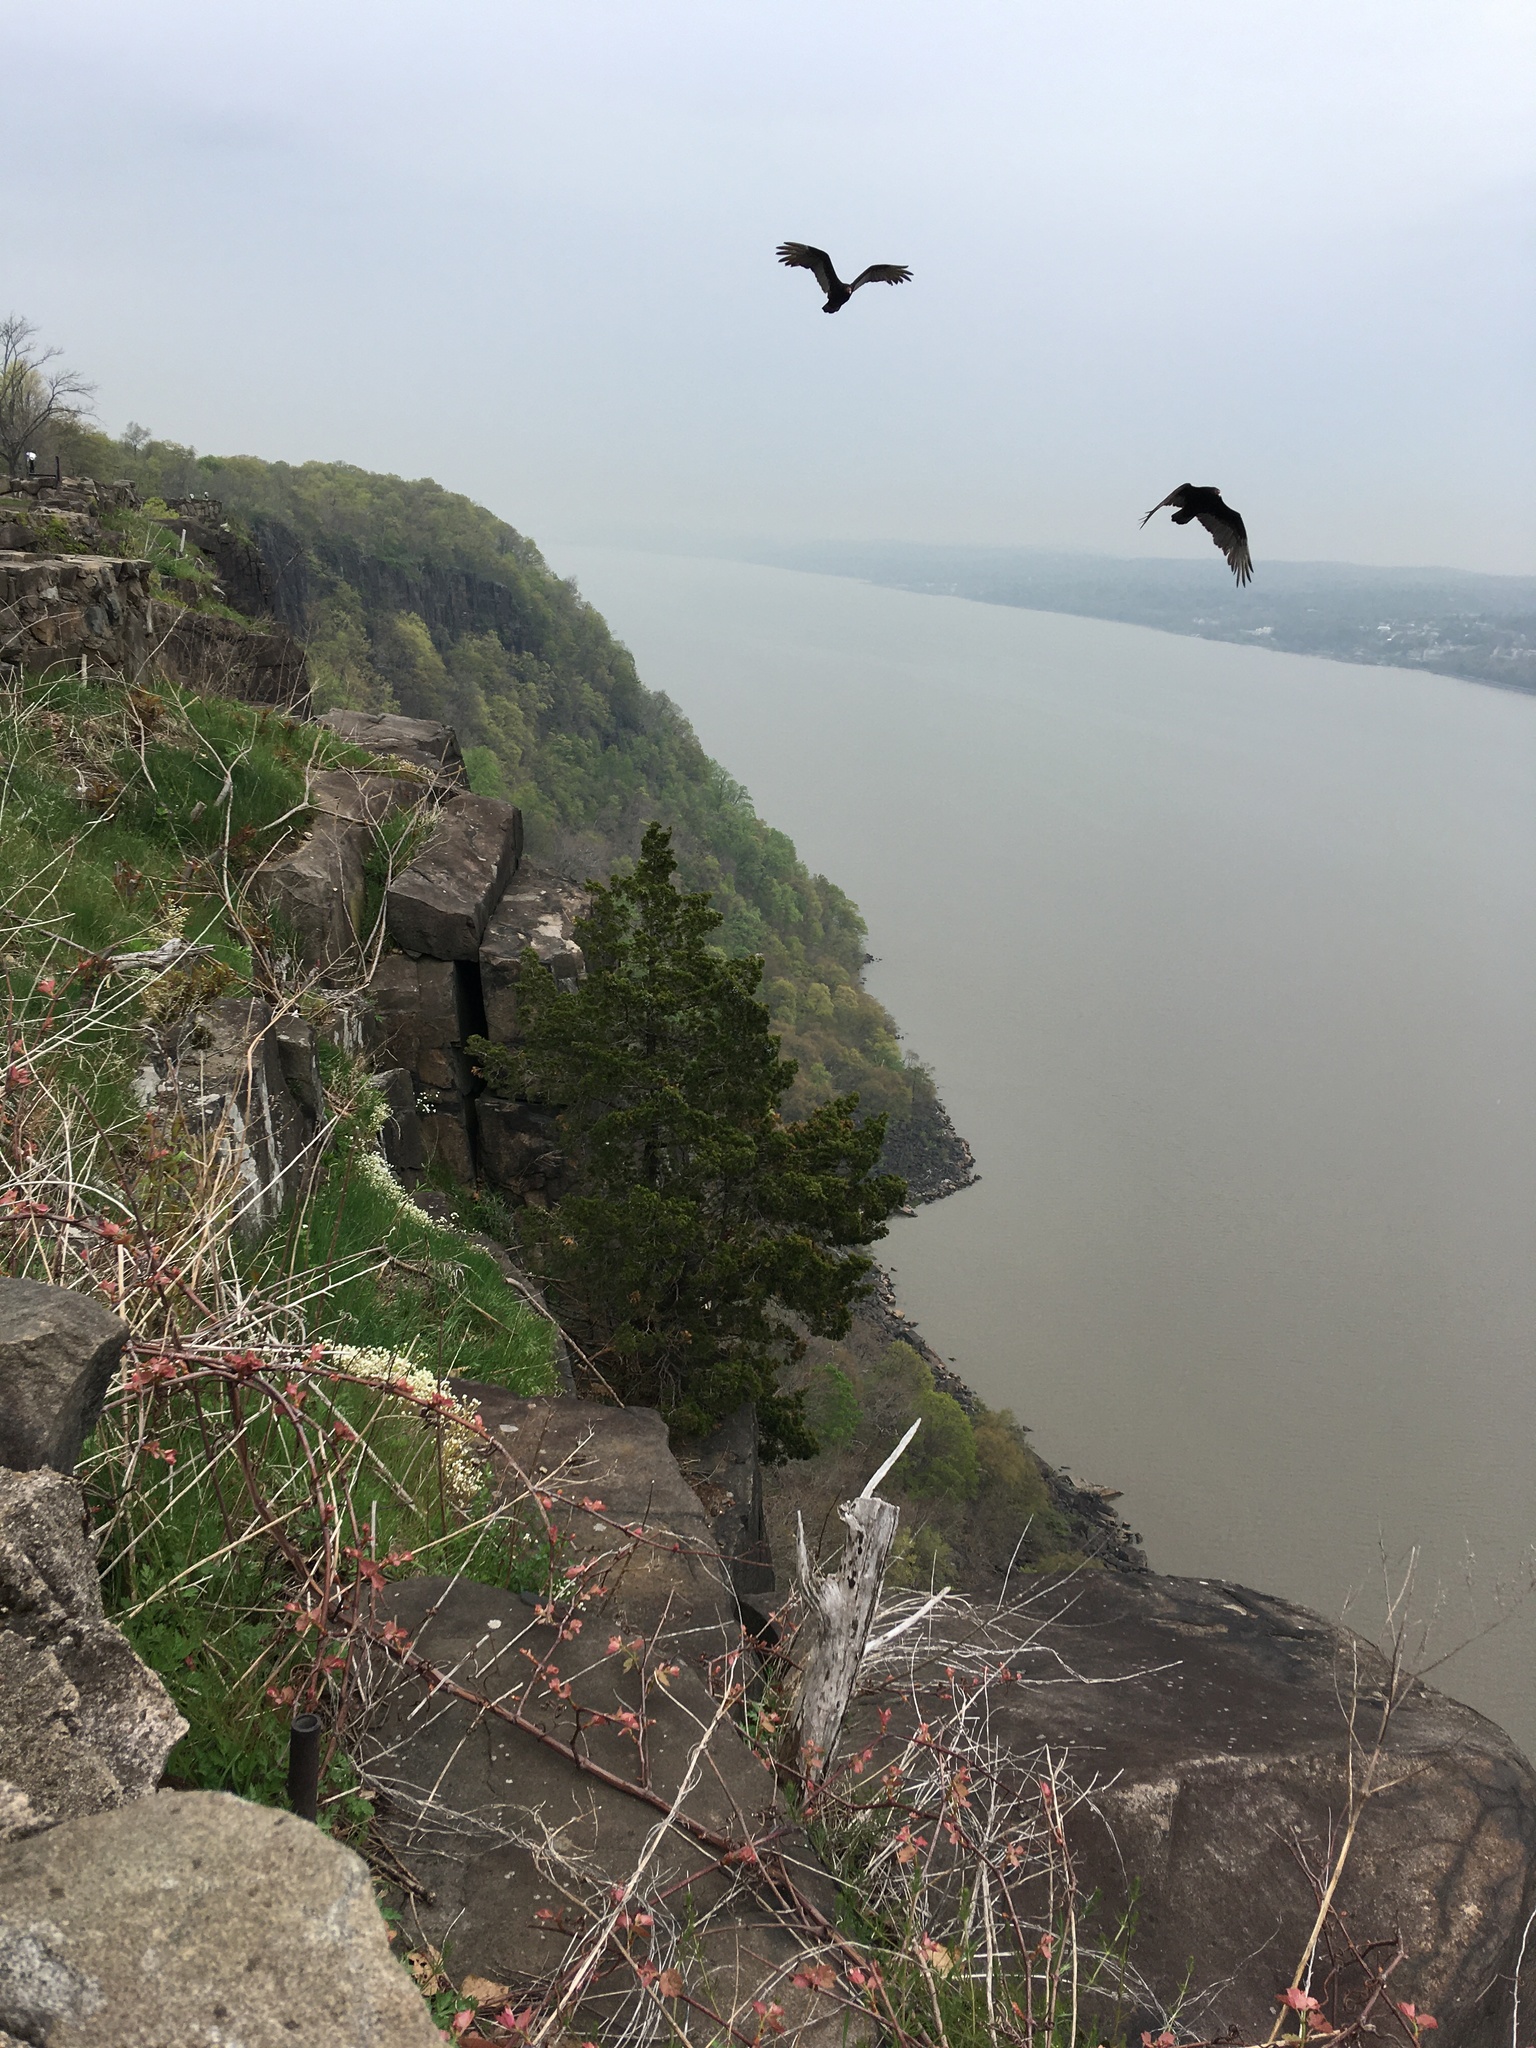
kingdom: Animalia
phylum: Chordata
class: Aves
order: Accipitriformes
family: Cathartidae
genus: Cathartes
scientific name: Cathartes aura
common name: Turkey vulture
